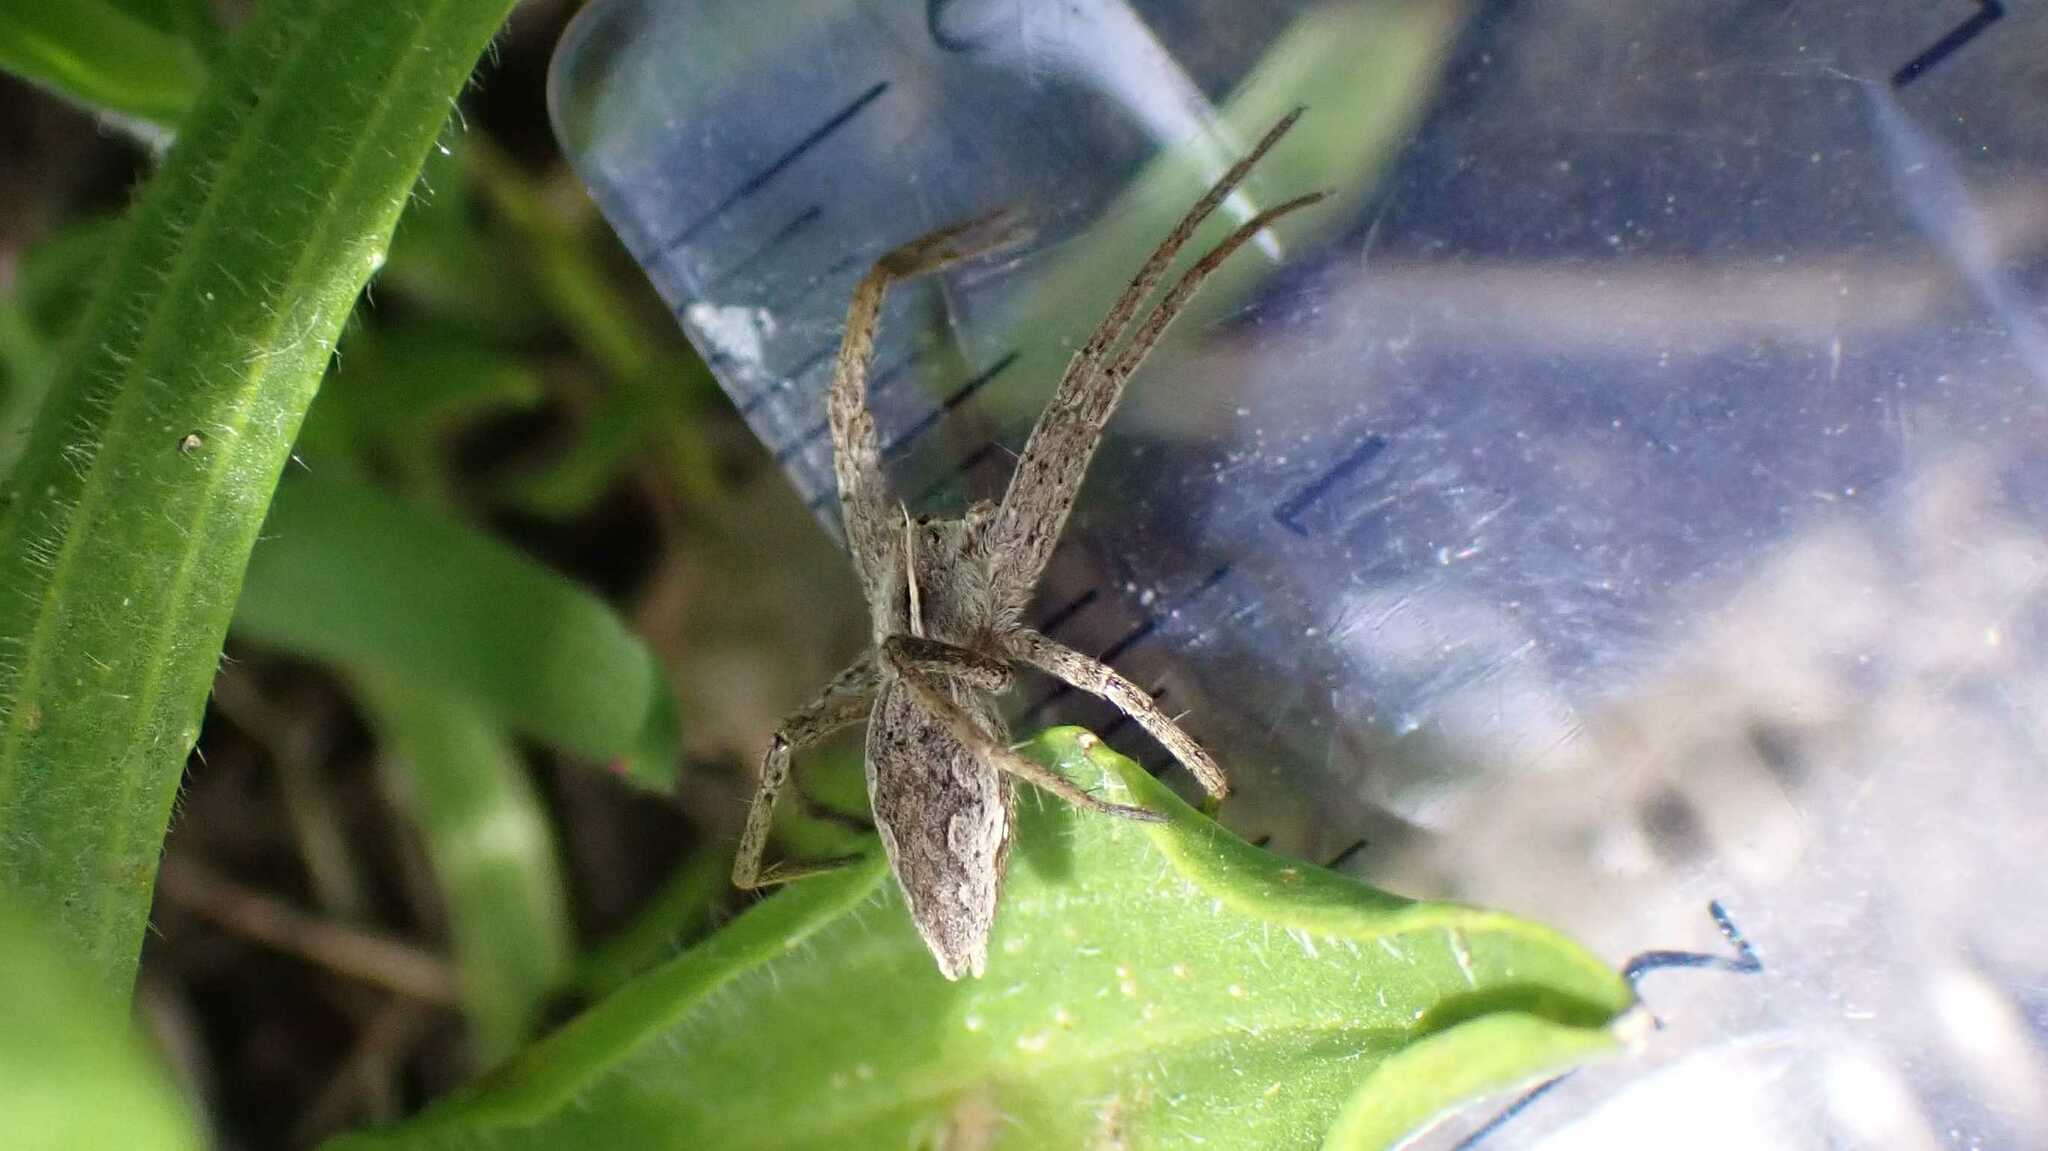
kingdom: Animalia
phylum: Arthropoda
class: Arachnida
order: Araneae
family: Pisauridae
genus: Pisaura
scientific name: Pisaura mirabilis
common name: Tent spider
